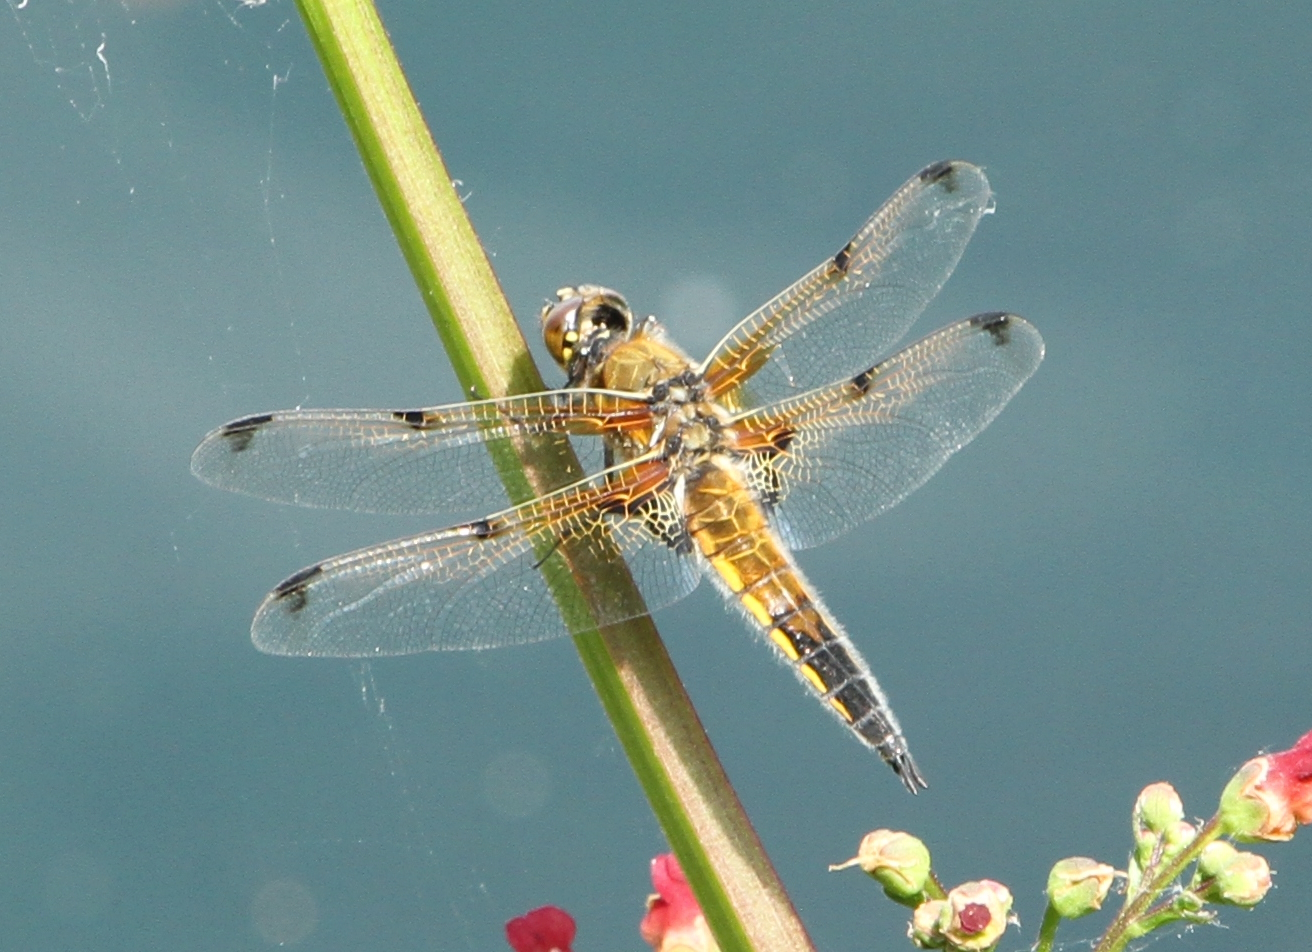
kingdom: Animalia
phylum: Arthropoda
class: Insecta
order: Odonata
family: Libellulidae
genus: Libellula
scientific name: Libellula quadrimaculata
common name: Four-spotted chaser
